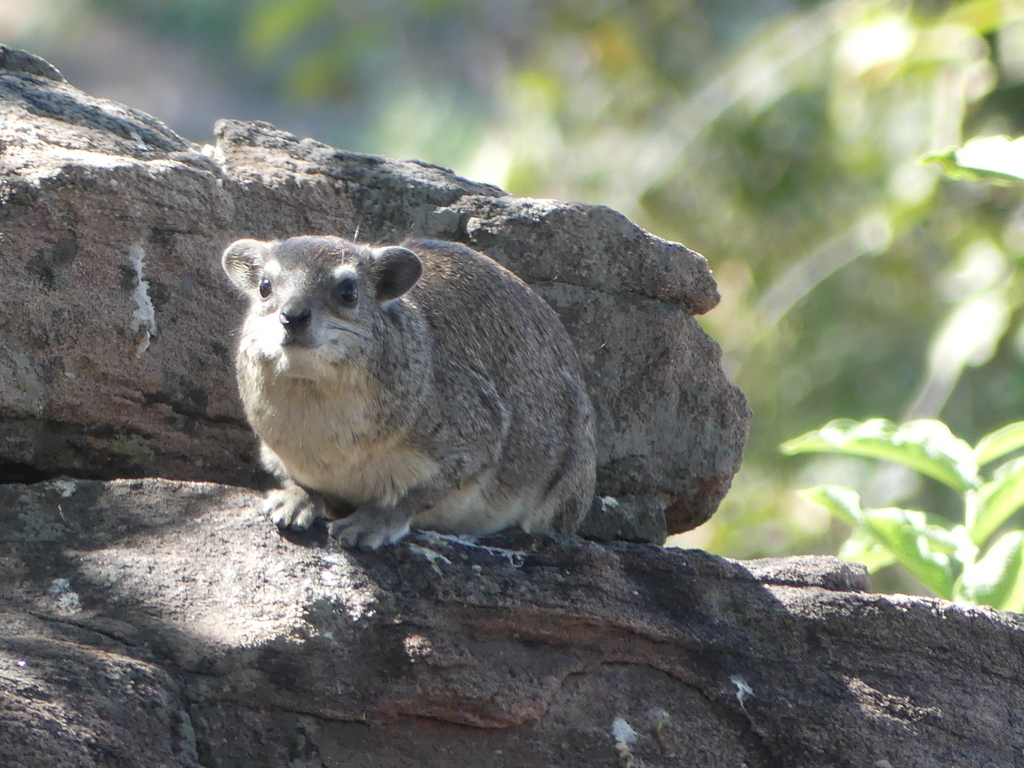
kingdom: Animalia
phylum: Chordata
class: Mammalia
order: Hyracoidea
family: Procaviidae
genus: Heterohyrax
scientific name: Heterohyrax brucei
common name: Bush hyrax
